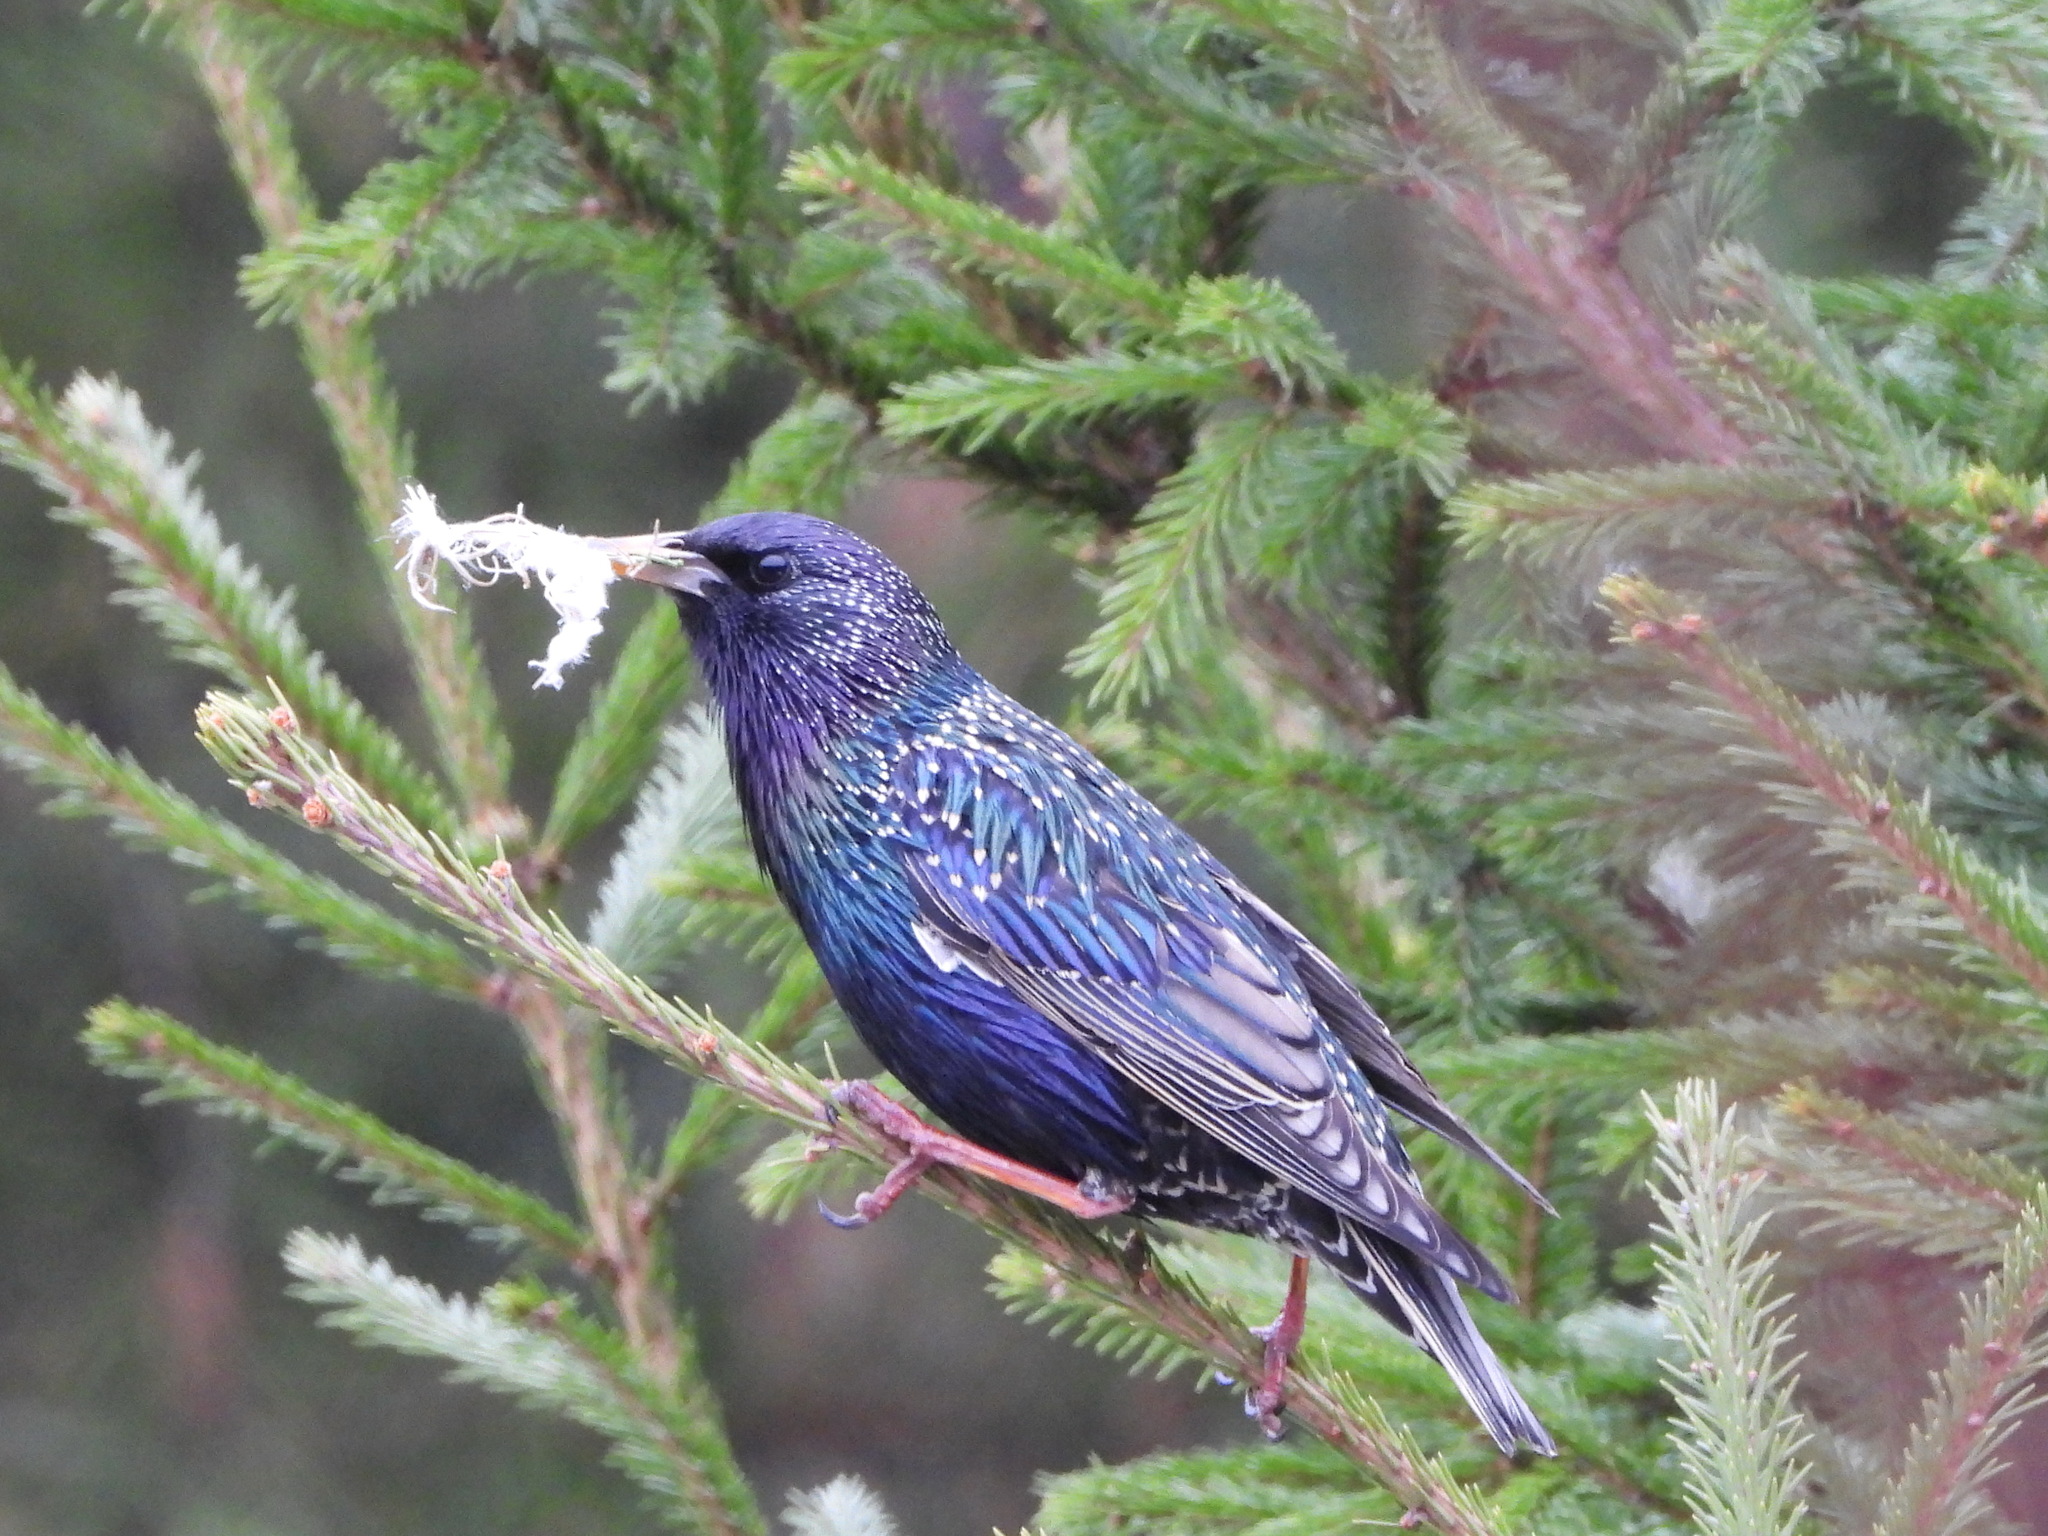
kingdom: Animalia
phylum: Chordata
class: Aves
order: Passeriformes
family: Sturnidae
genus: Sturnus
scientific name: Sturnus vulgaris
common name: Common starling
